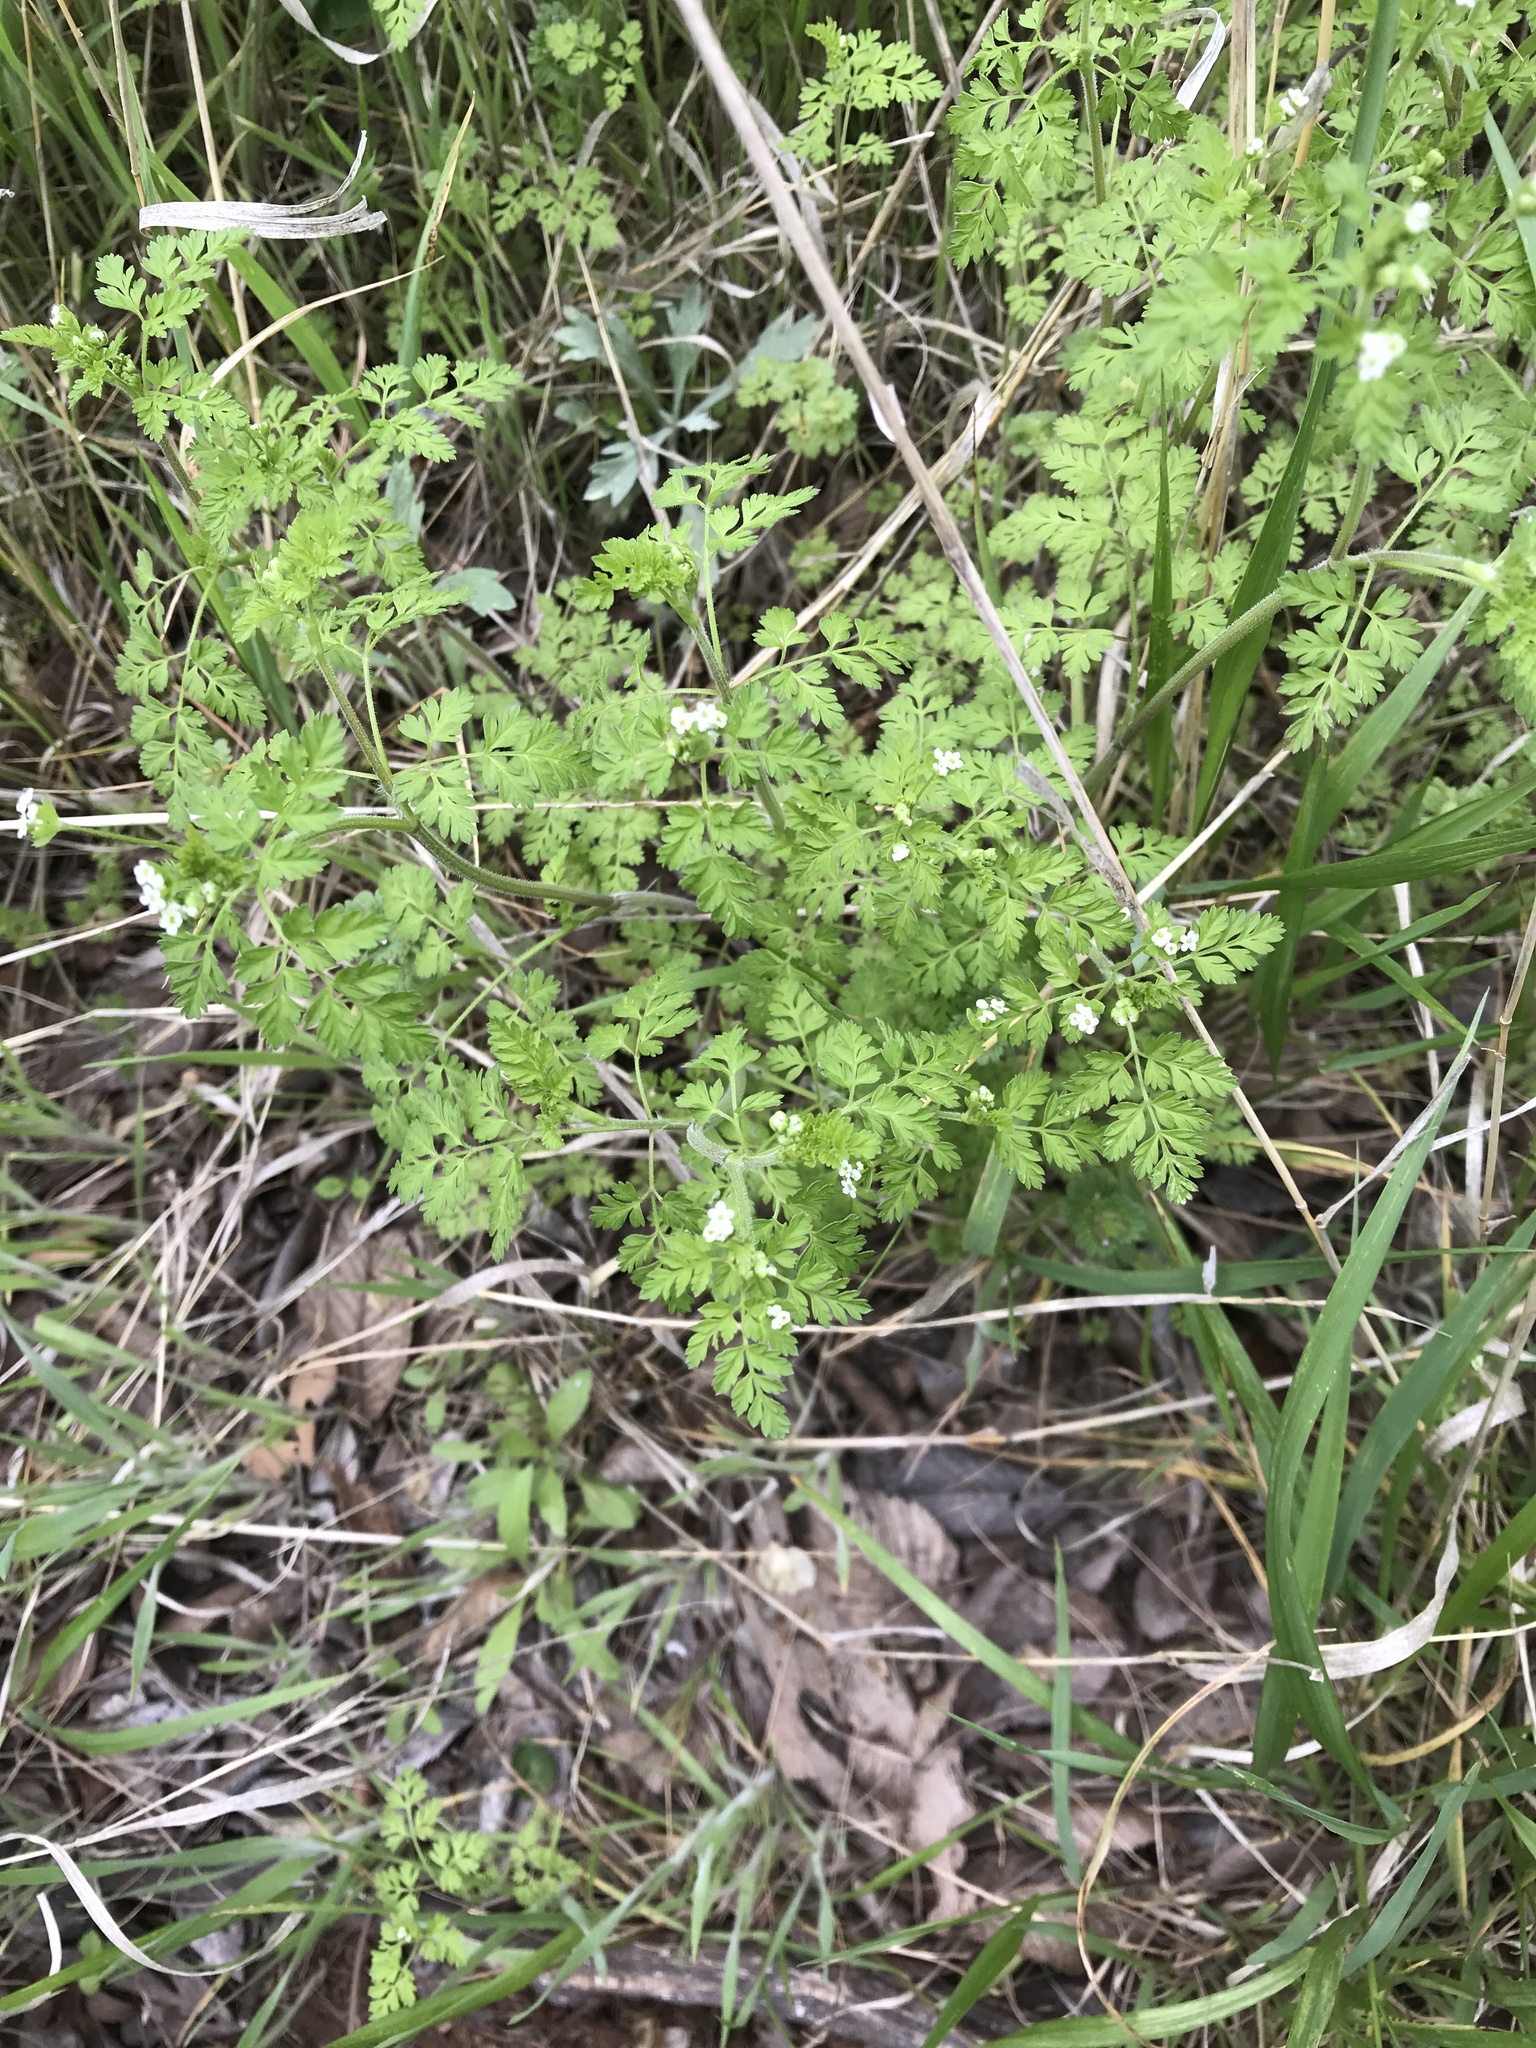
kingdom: Plantae
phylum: Tracheophyta
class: Magnoliopsida
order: Apiales
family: Apiaceae
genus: Chaerophyllum
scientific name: Chaerophyllum tainturieri
